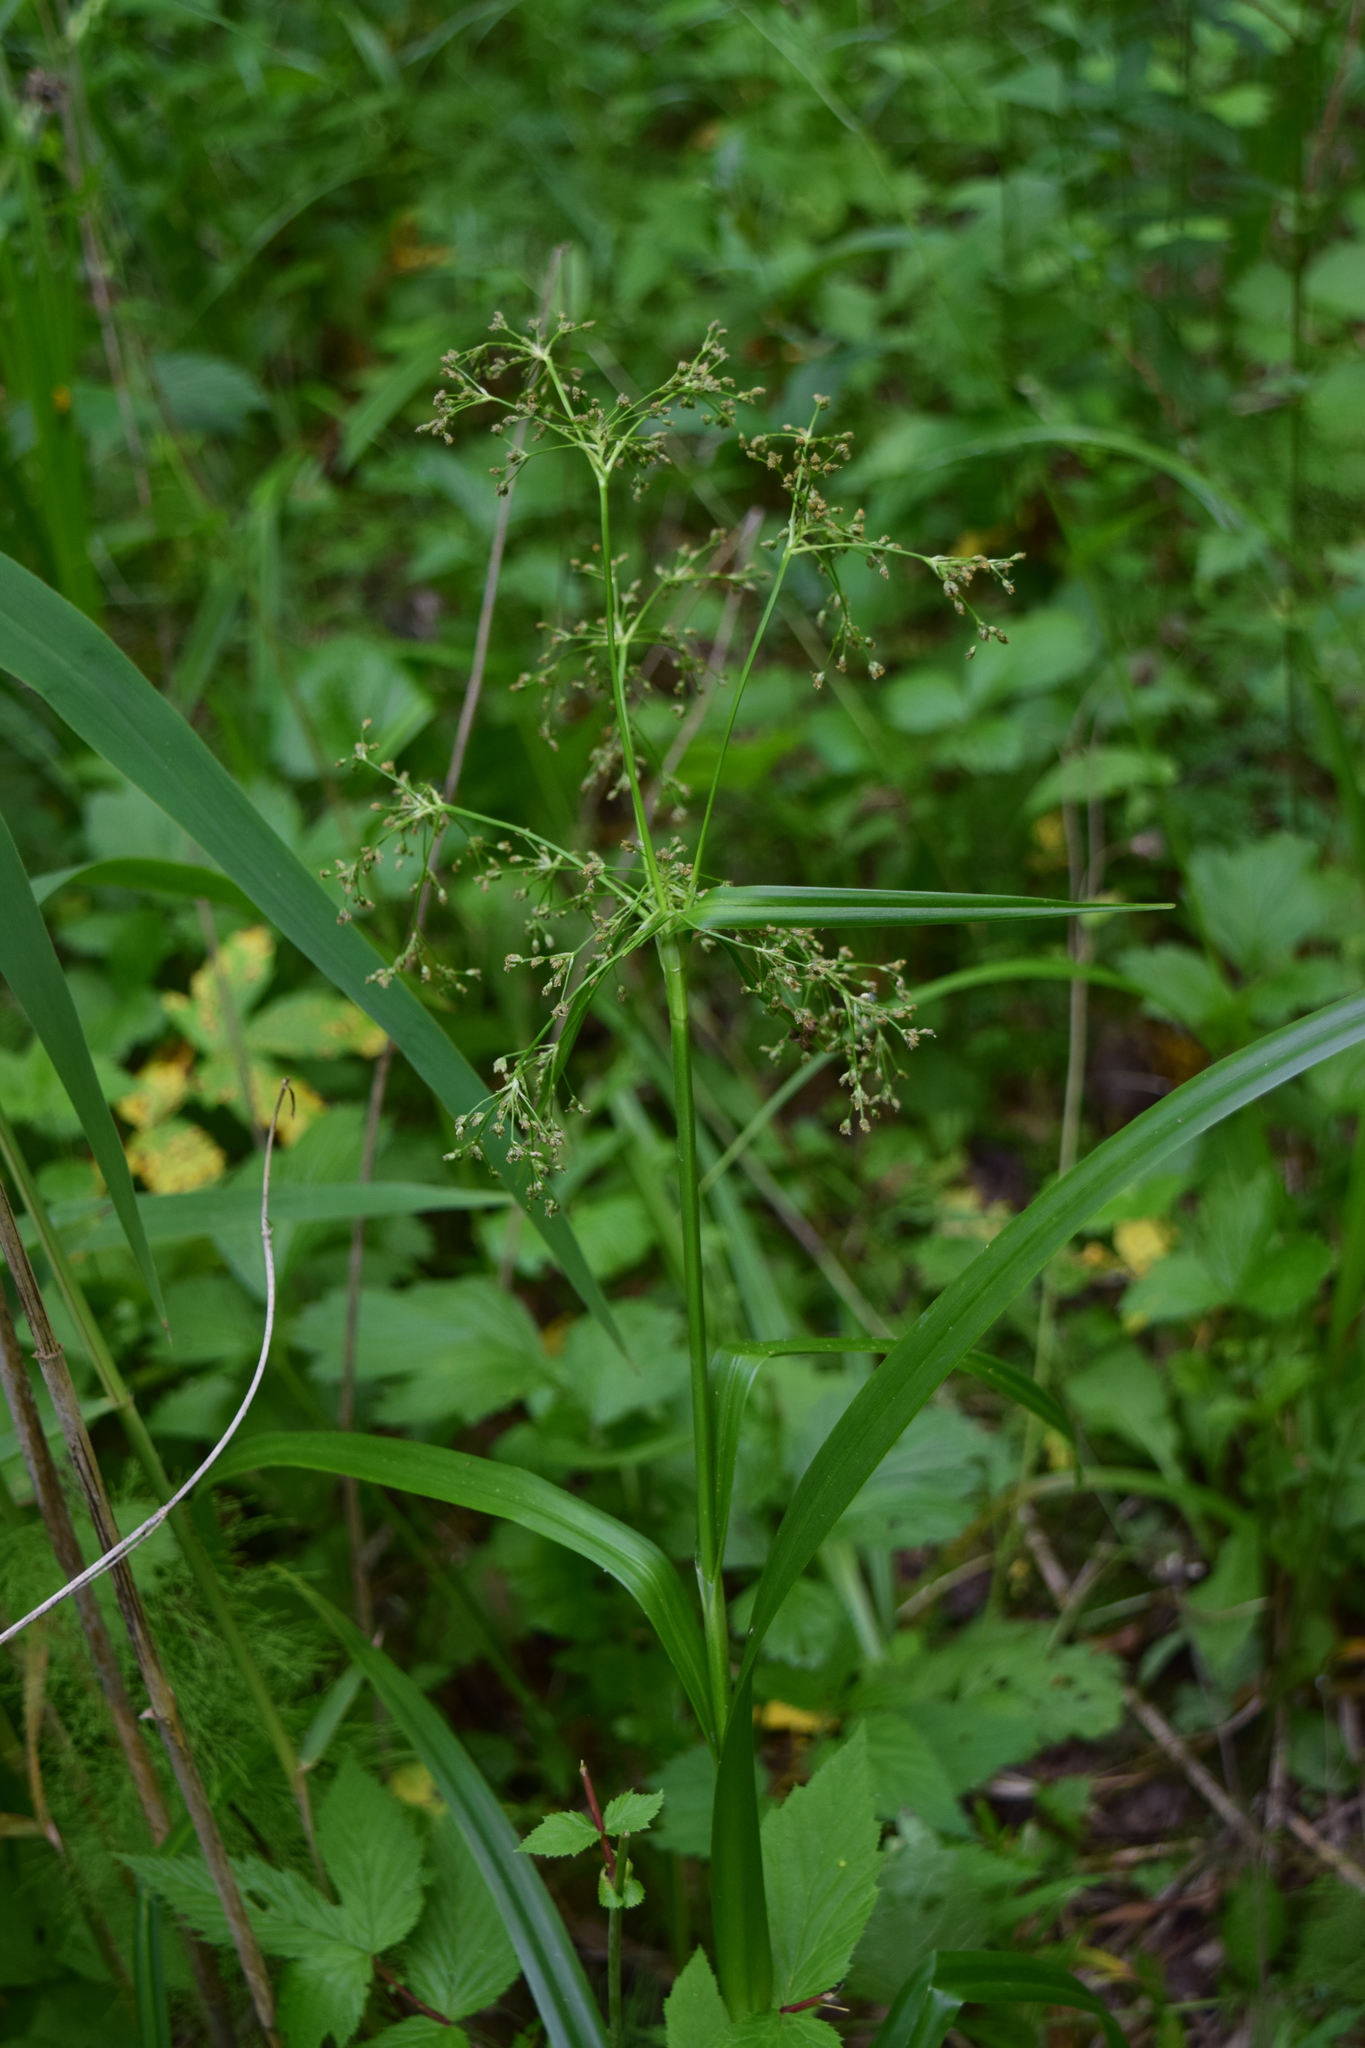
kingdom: Plantae
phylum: Tracheophyta
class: Liliopsida
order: Poales
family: Cyperaceae
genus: Scirpus
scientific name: Scirpus sylvaticus
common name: Wood club-rush
